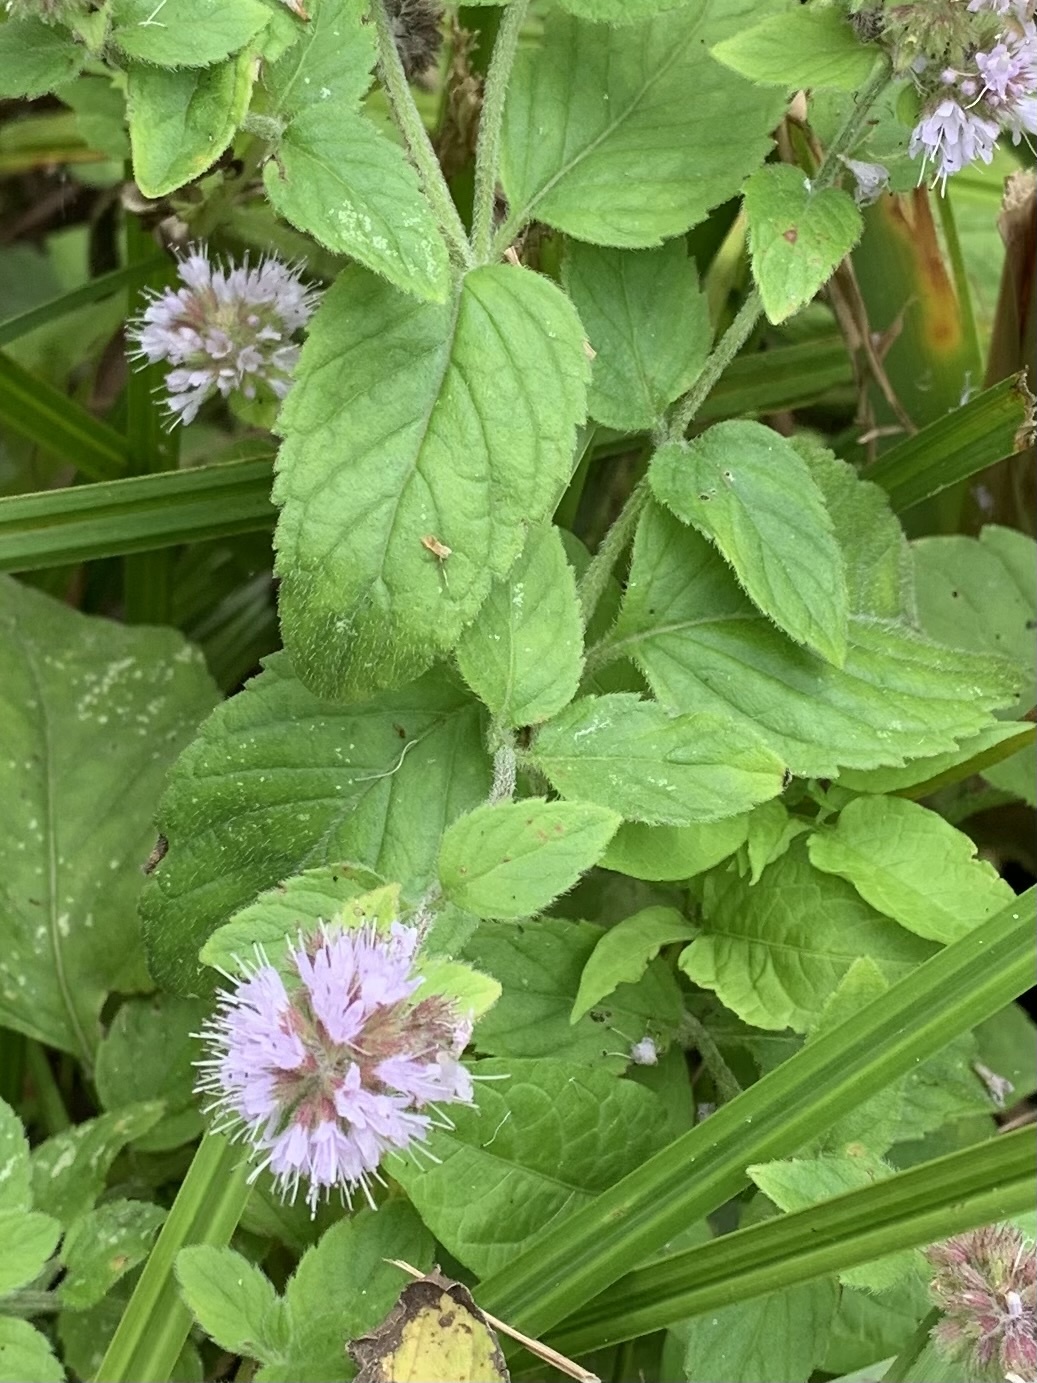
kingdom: Plantae
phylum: Tracheophyta
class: Magnoliopsida
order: Lamiales
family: Lamiaceae
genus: Mentha
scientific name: Mentha aquatica
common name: Water mint
